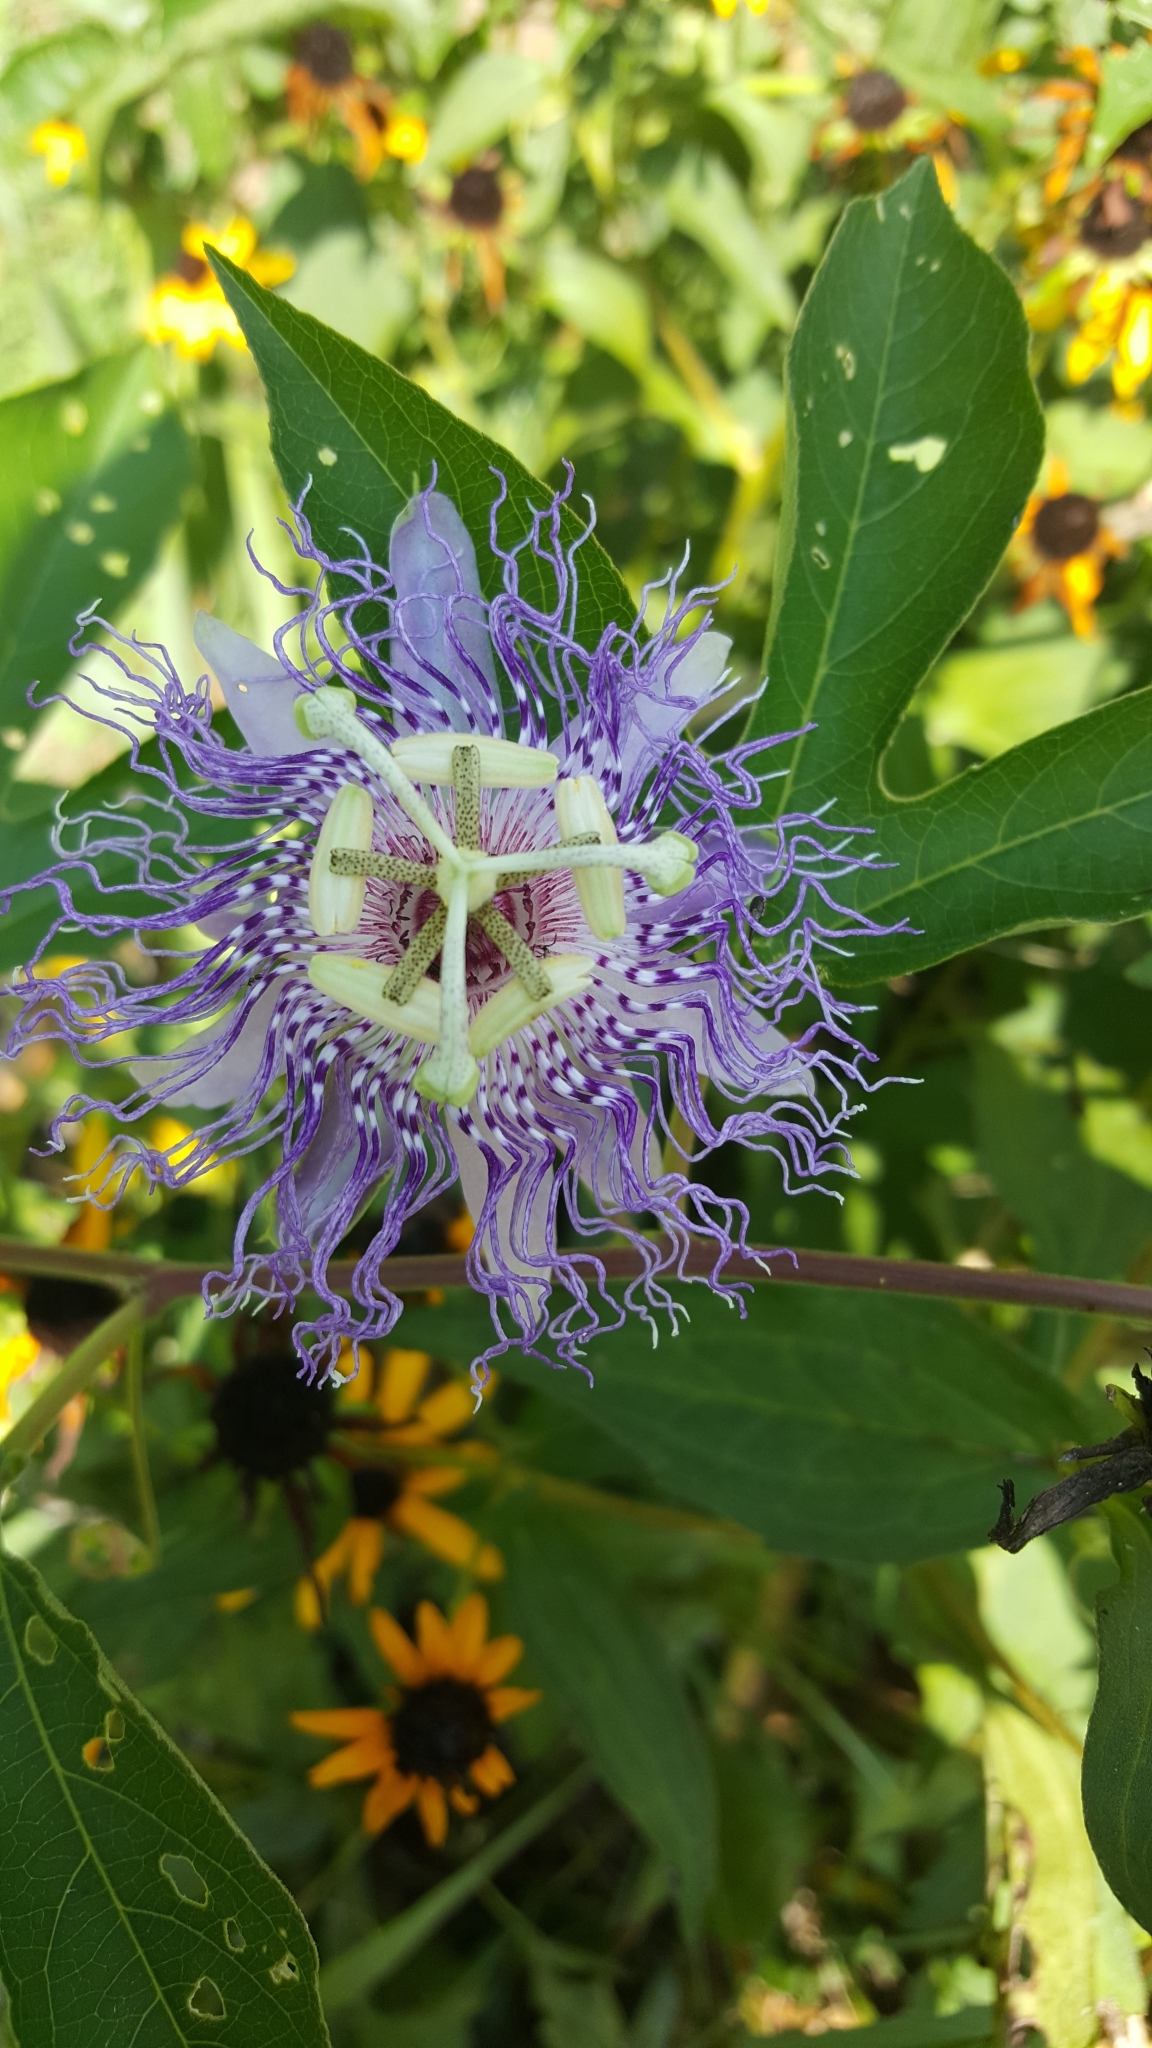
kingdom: Plantae
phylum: Tracheophyta
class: Magnoliopsida
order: Malpighiales
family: Passifloraceae
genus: Passiflora
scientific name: Passiflora incarnata
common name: Apricot-vine
